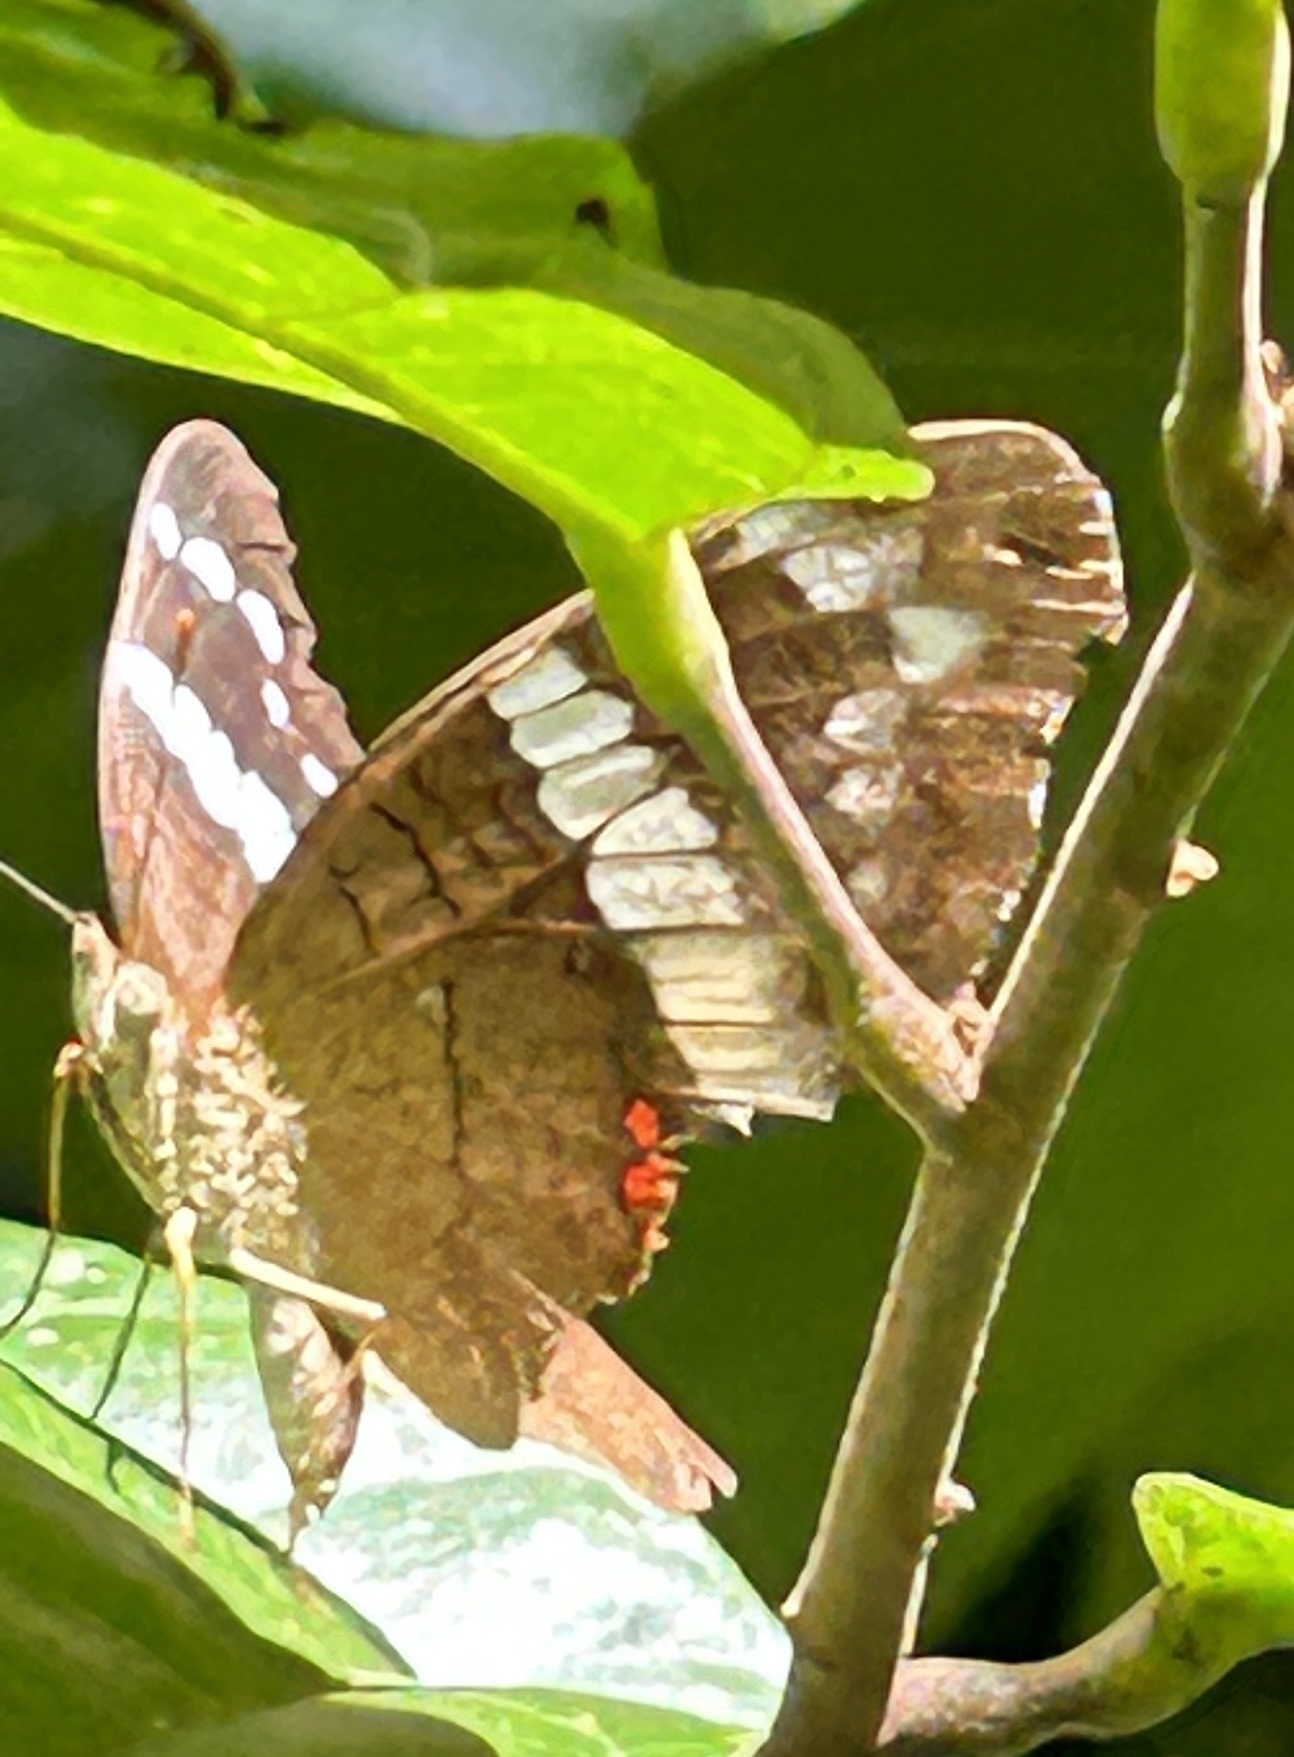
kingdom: Animalia
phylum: Arthropoda
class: Insecta
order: Lepidoptera
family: Nymphalidae
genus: Anartia
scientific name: Anartia fatima
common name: Banded peacock
